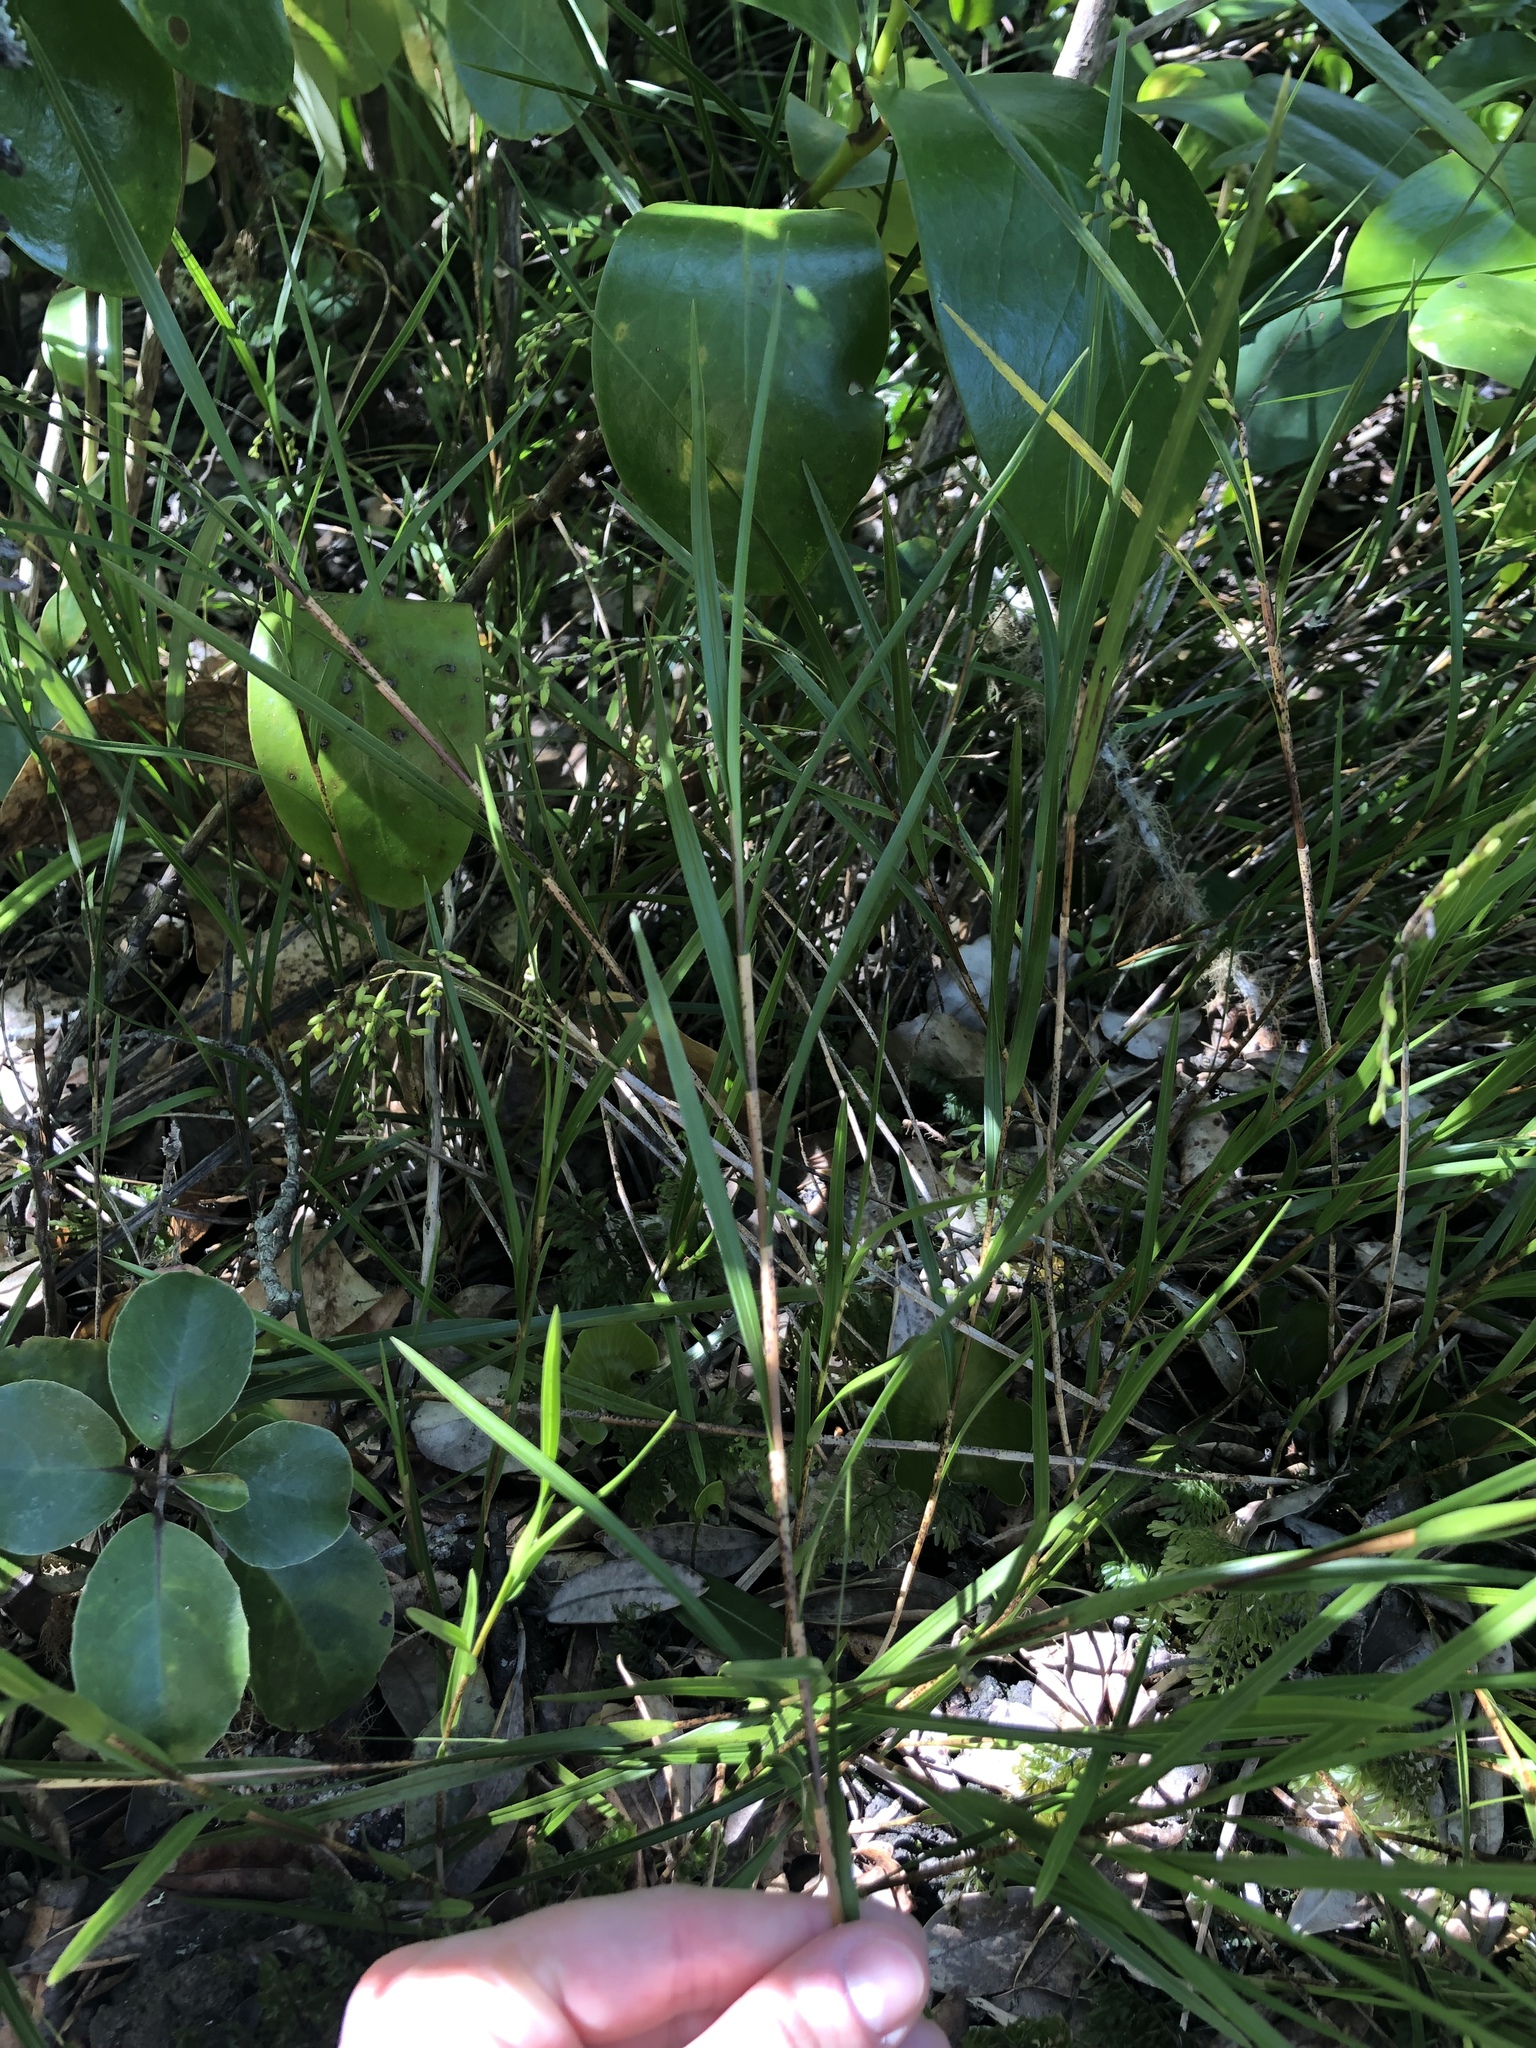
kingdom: Plantae
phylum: Tracheophyta
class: Liliopsida
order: Asparagales
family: Orchidaceae
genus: Earina
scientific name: Earina mucronata
